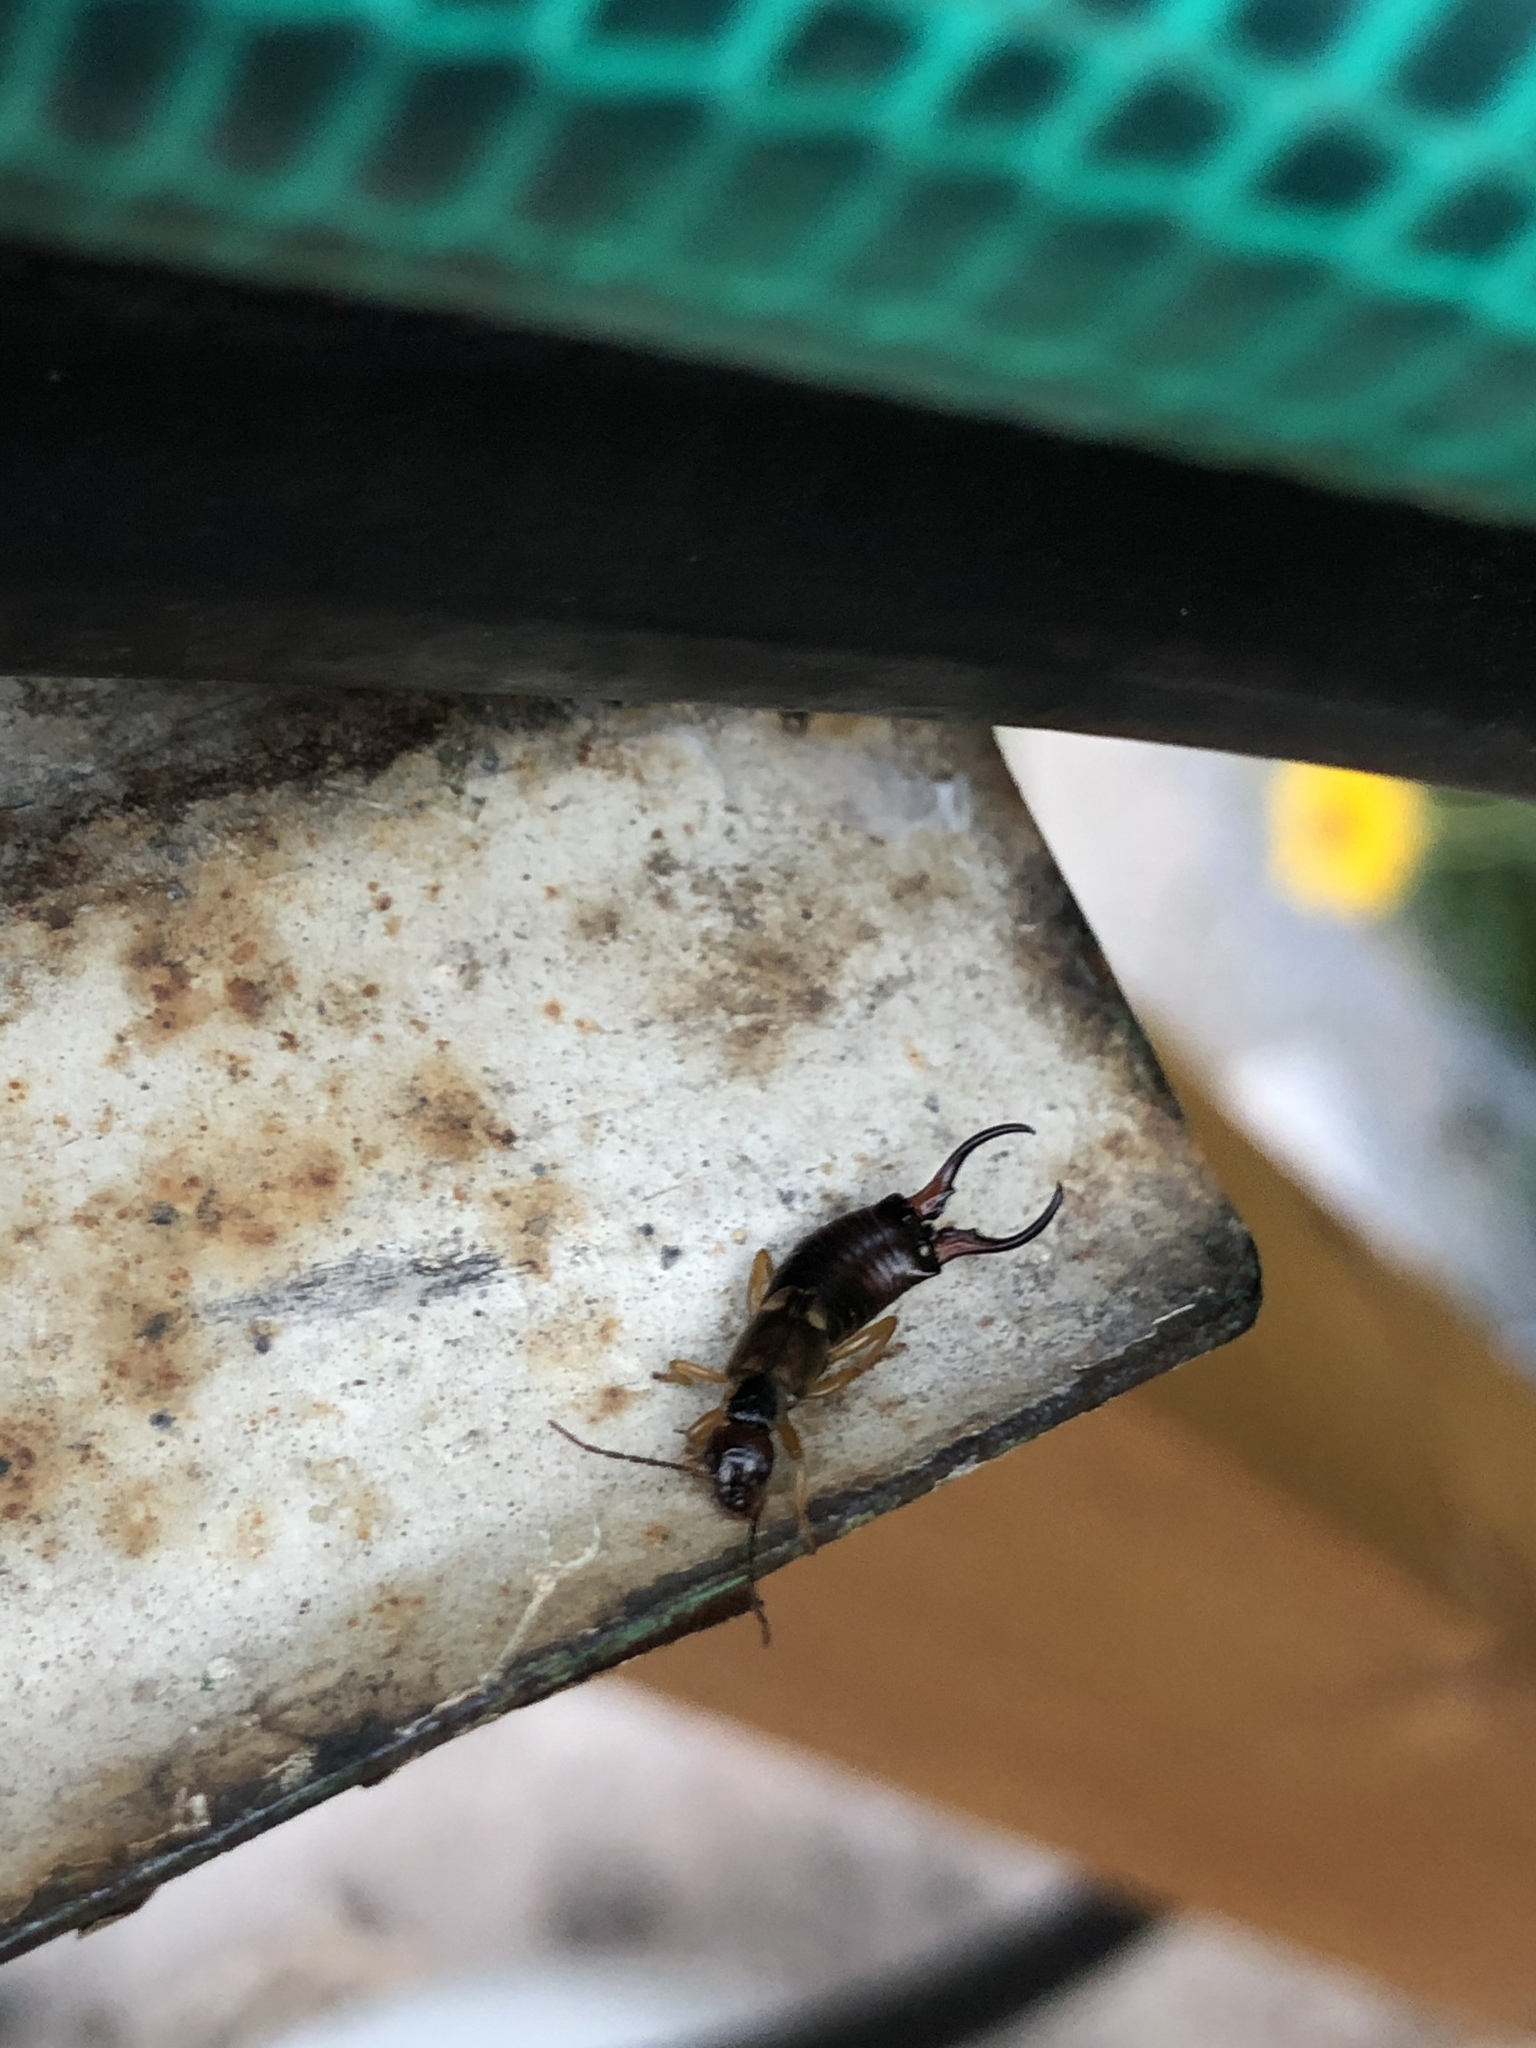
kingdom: Animalia
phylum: Arthropoda
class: Insecta
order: Dermaptera
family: Forficulidae
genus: Forficula
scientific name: Forficula
